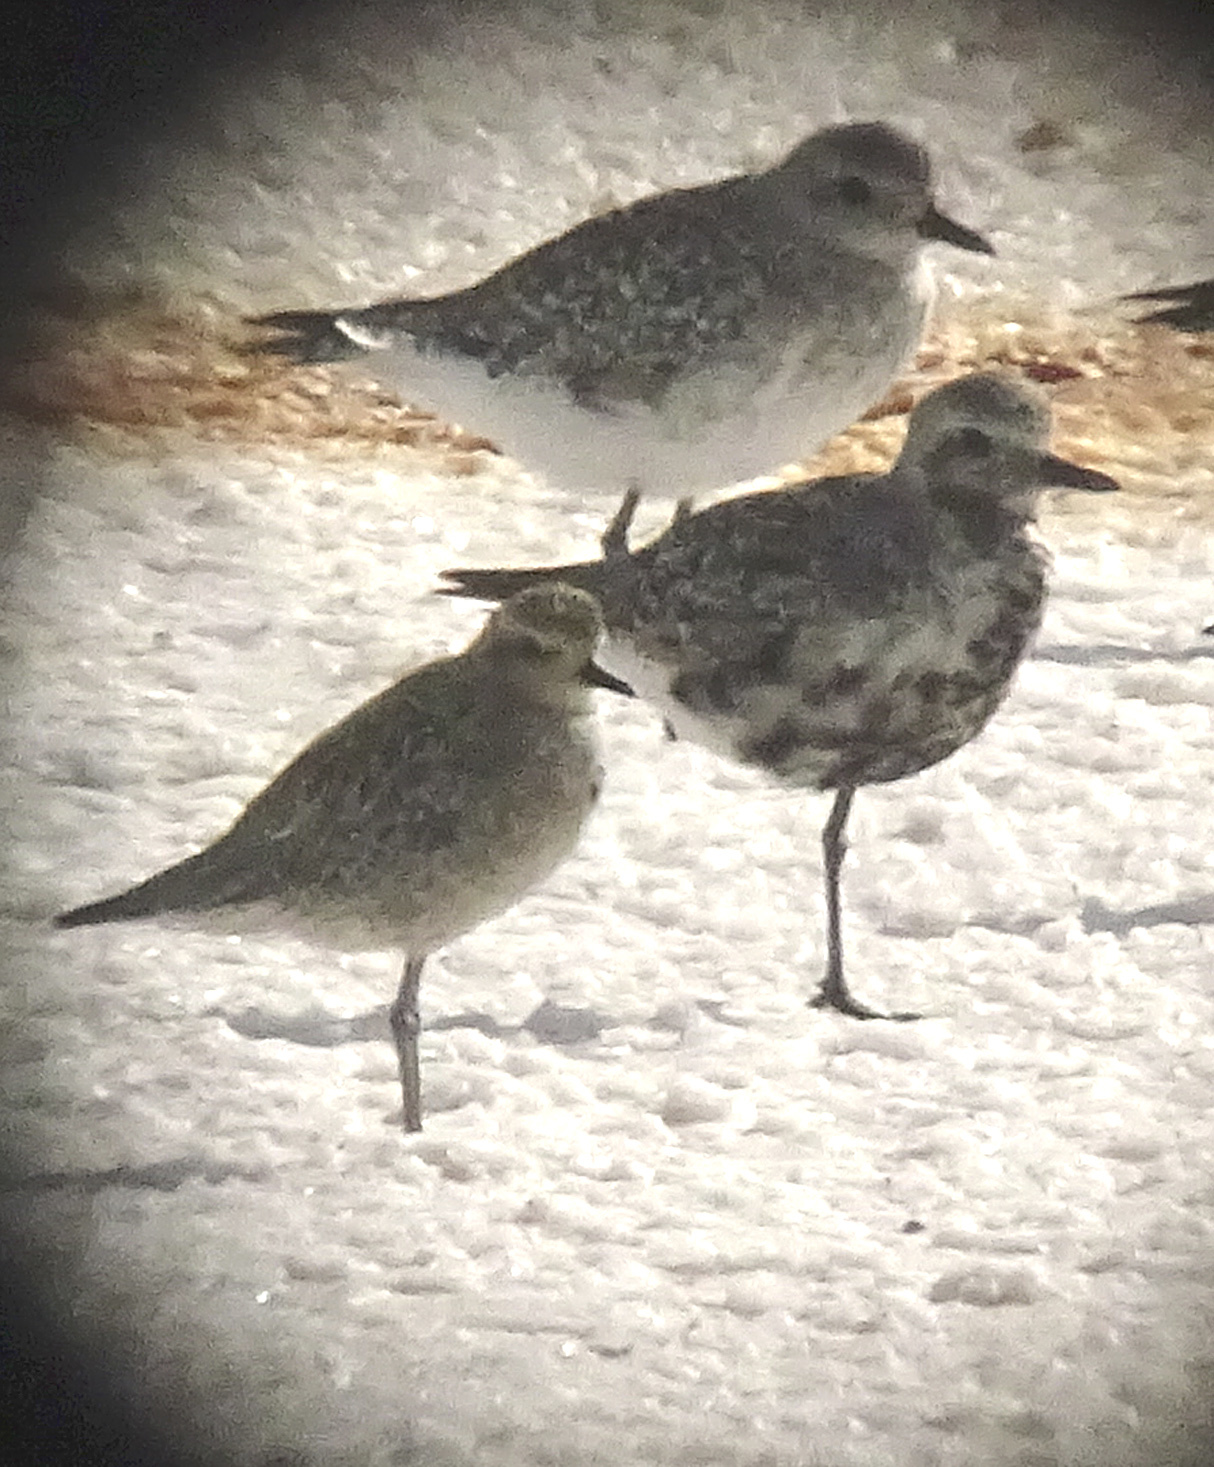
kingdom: Animalia
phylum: Chordata
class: Aves
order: Charadriiformes
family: Charadriidae
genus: Pluvialis
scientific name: Pluvialis fulva
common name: Pacific golden plover
